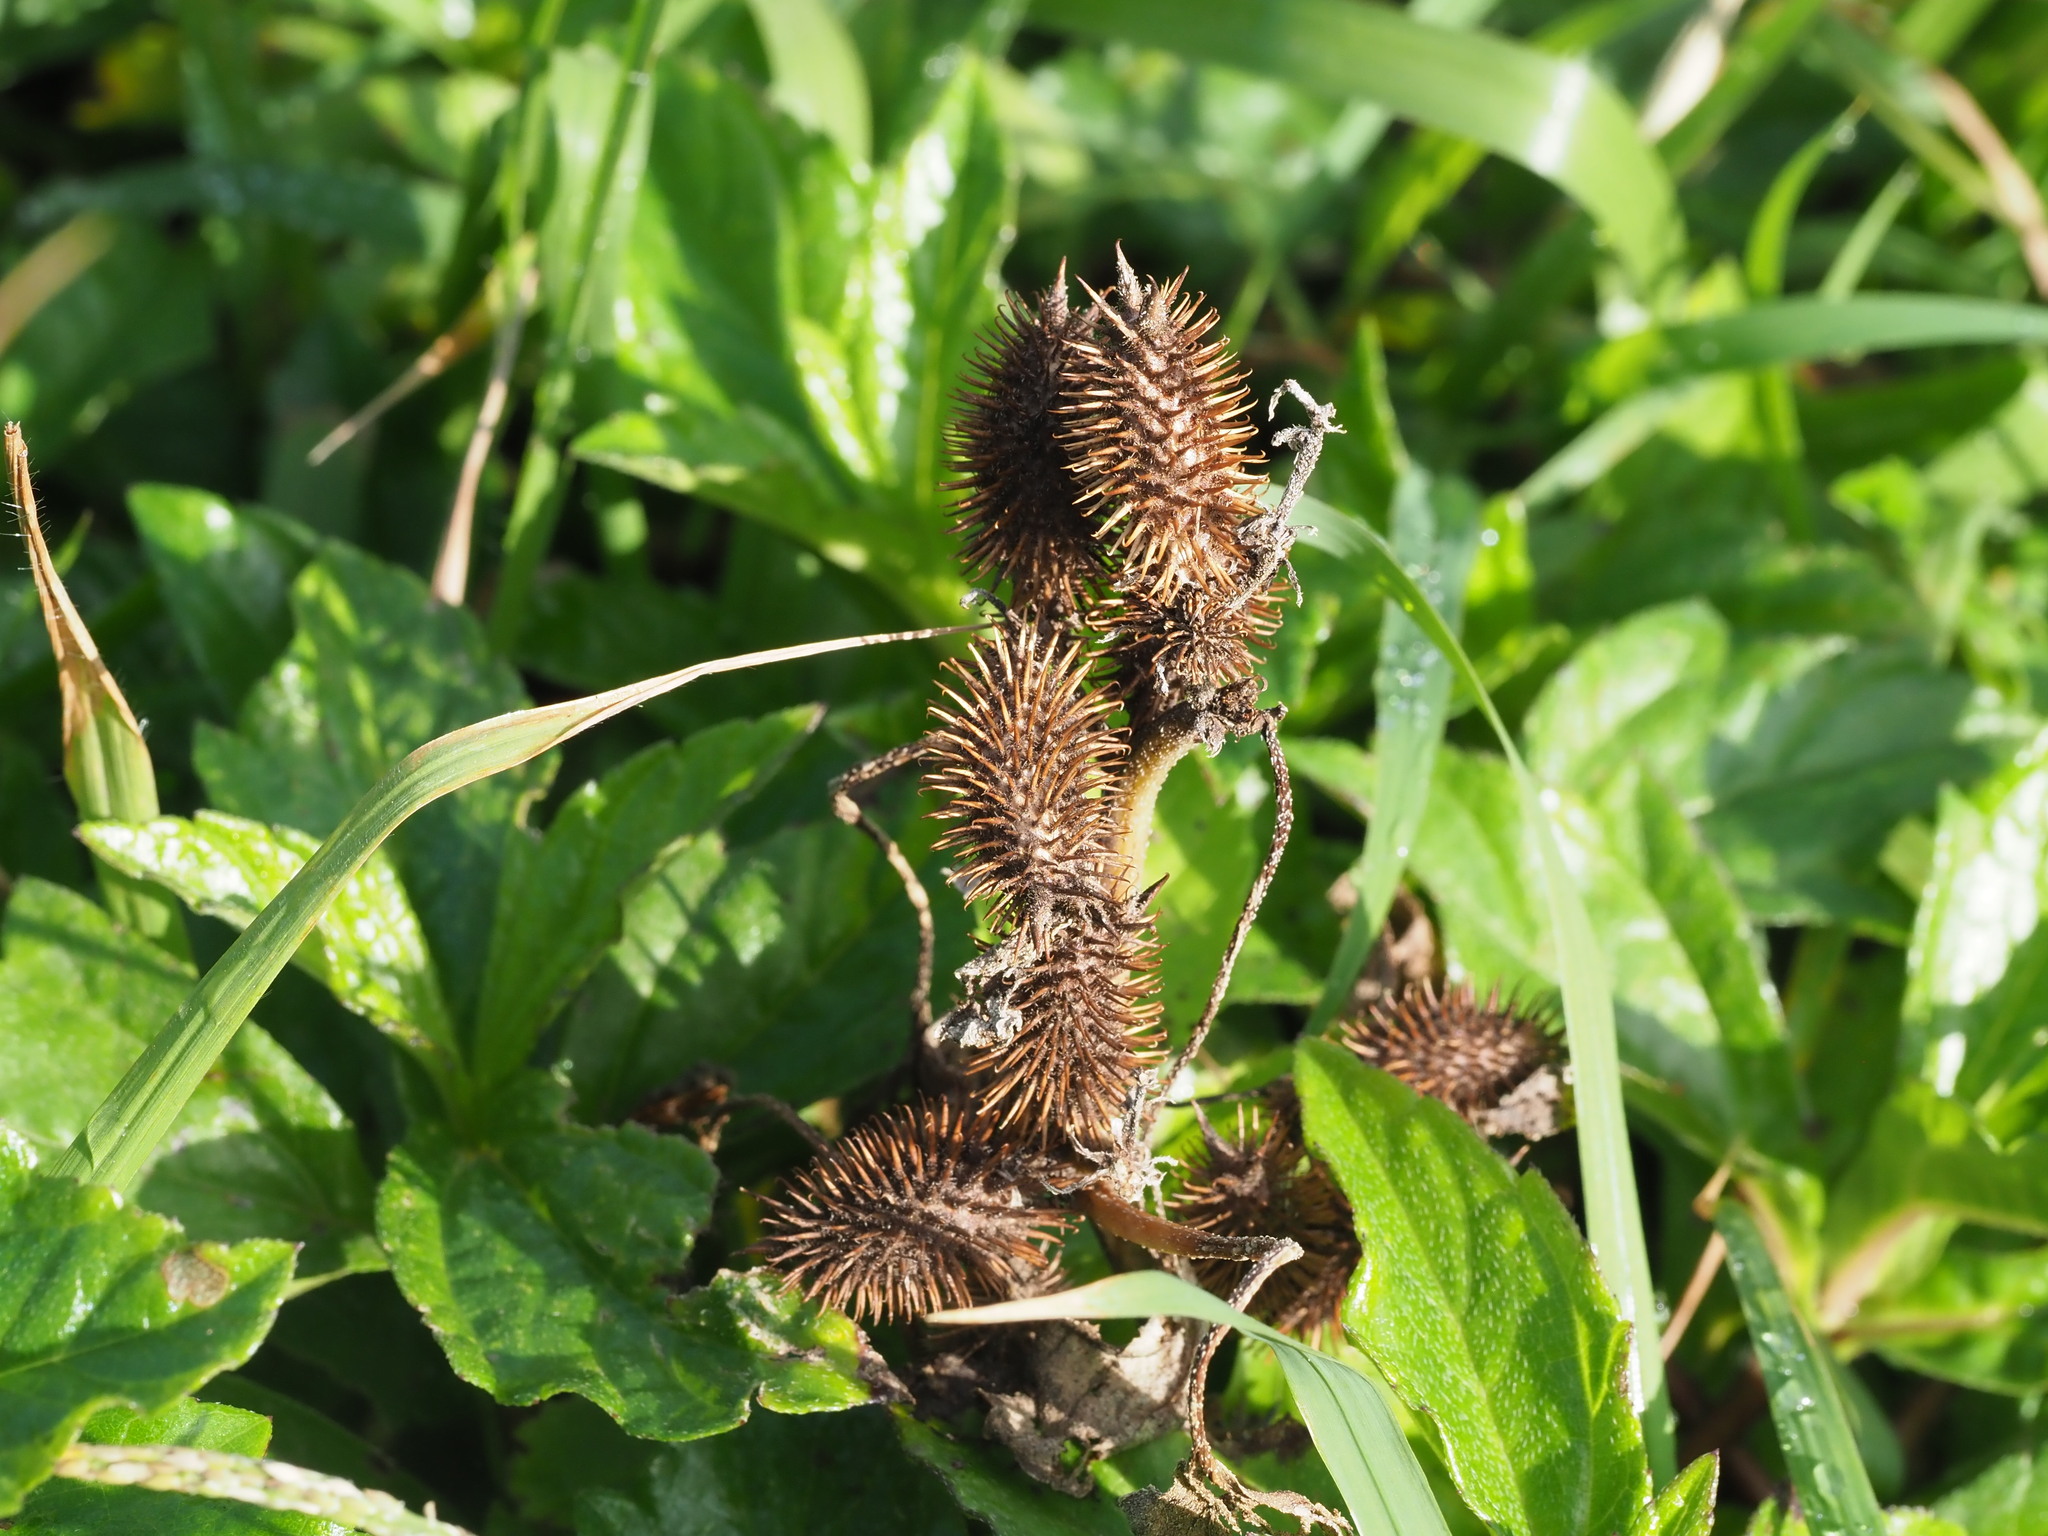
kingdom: Plantae
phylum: Tracheophyta
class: Magnoliopsida
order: Asterales
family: Asteraceae
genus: Xanthium
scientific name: Xanthium strumarium
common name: Rough cocklebur
